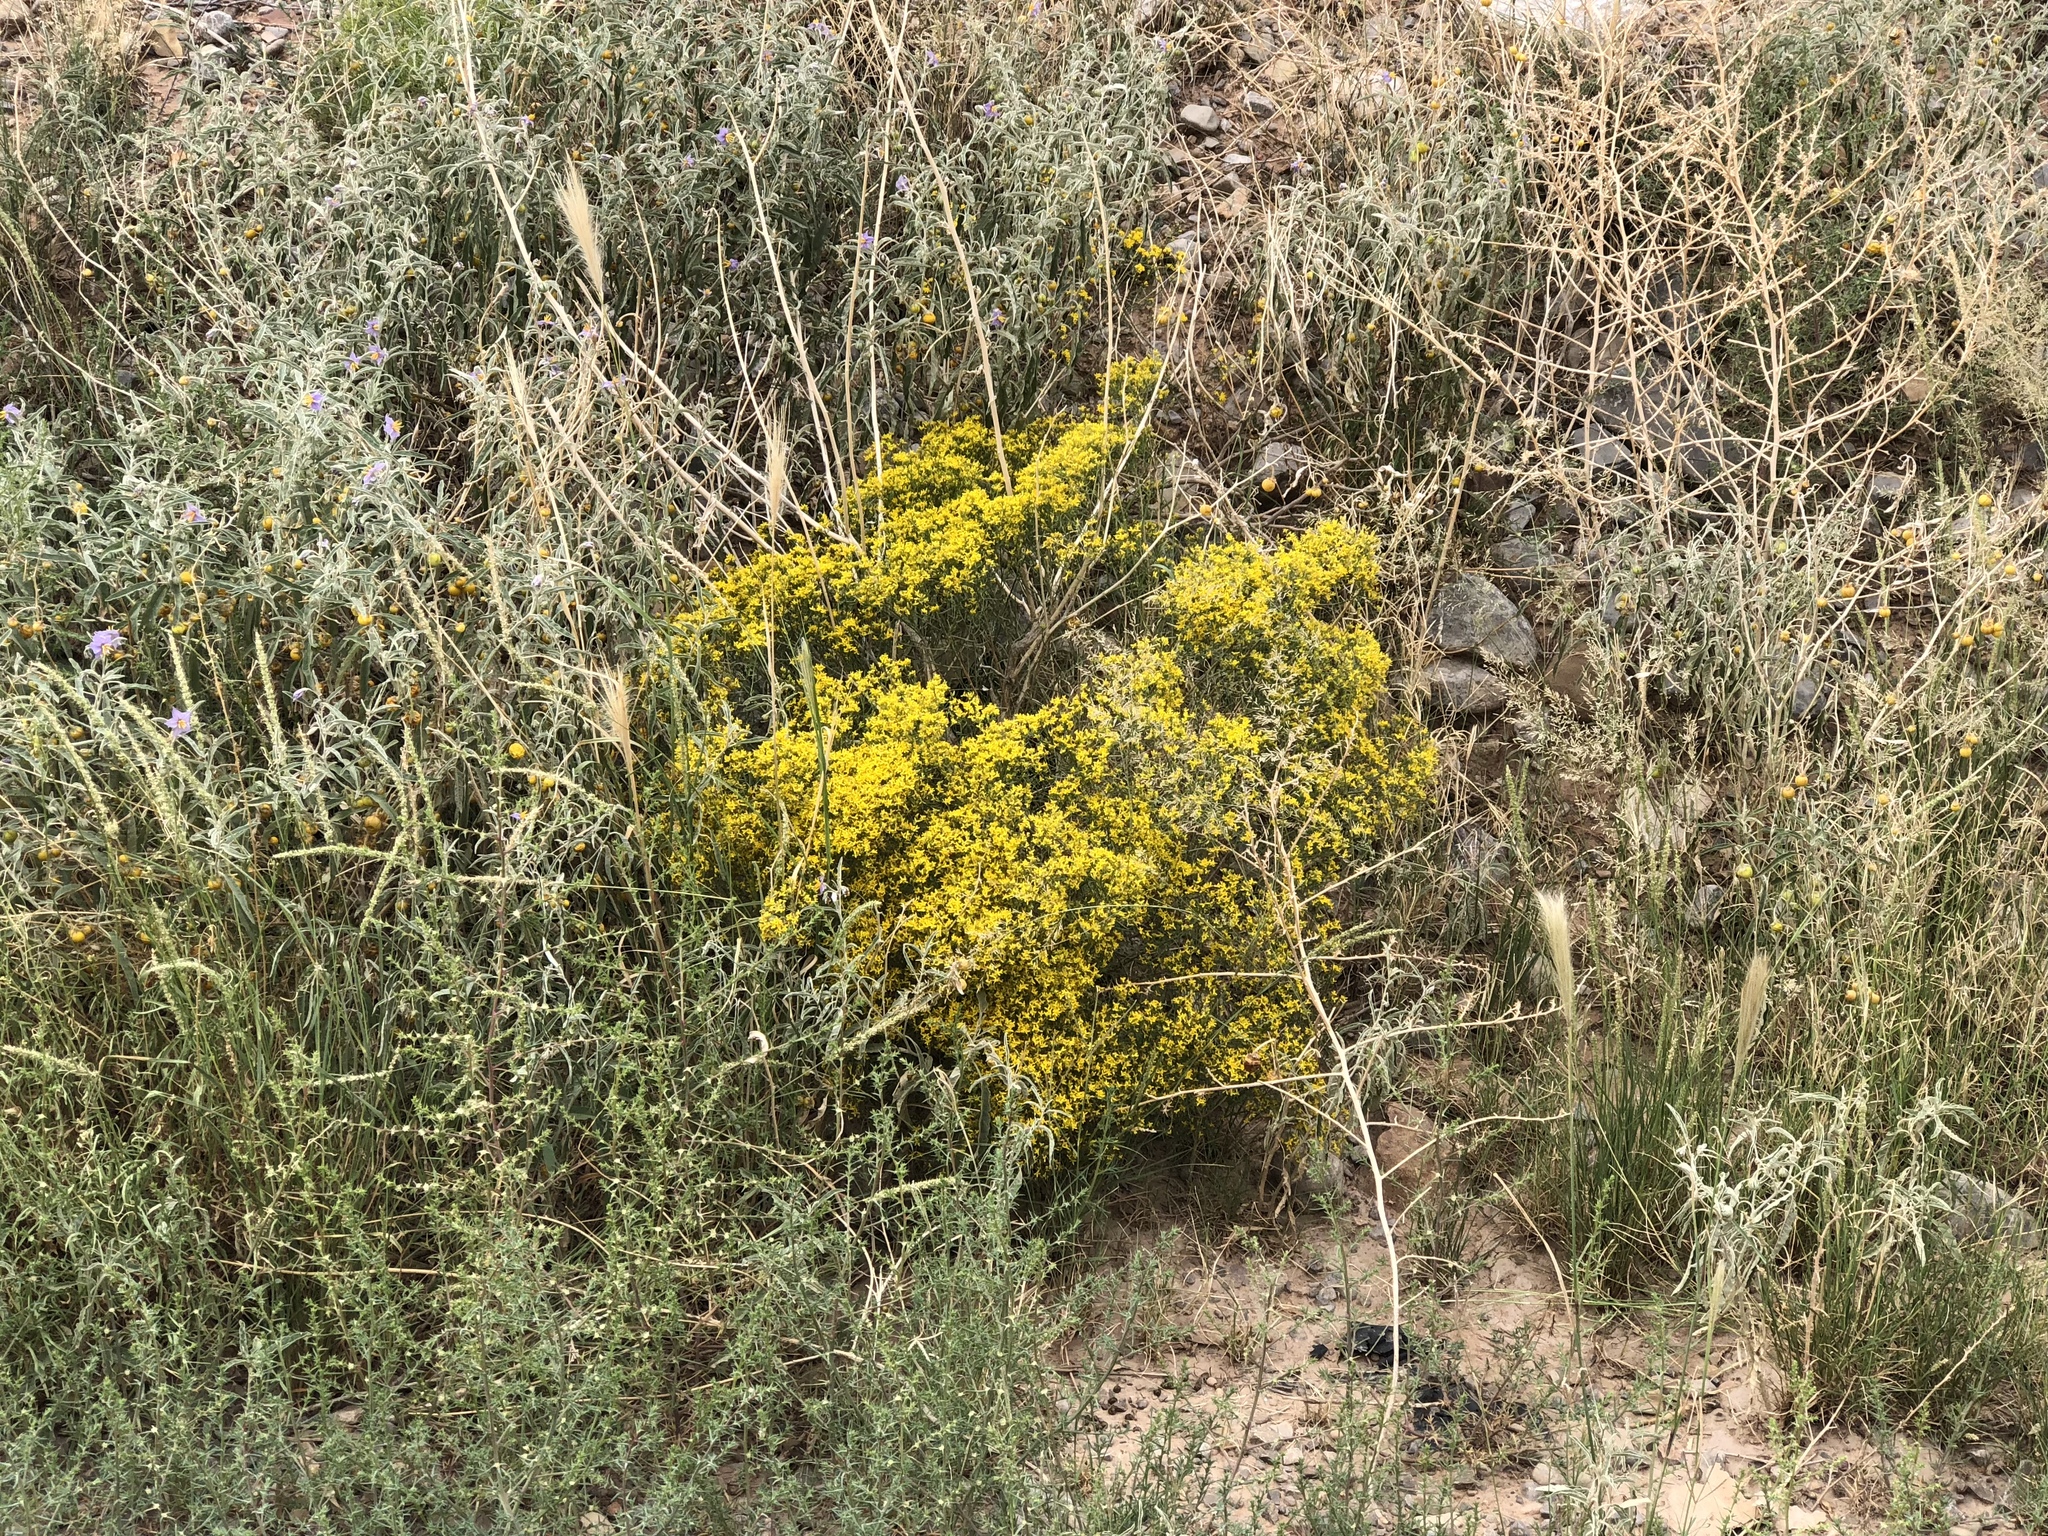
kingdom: Plantae
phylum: Tracheophyta
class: Magnoliopsida
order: Asterales
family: Asteraceae
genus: Gutierrezia
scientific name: Gutierrezia sarothrae
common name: Broom snakeweed
